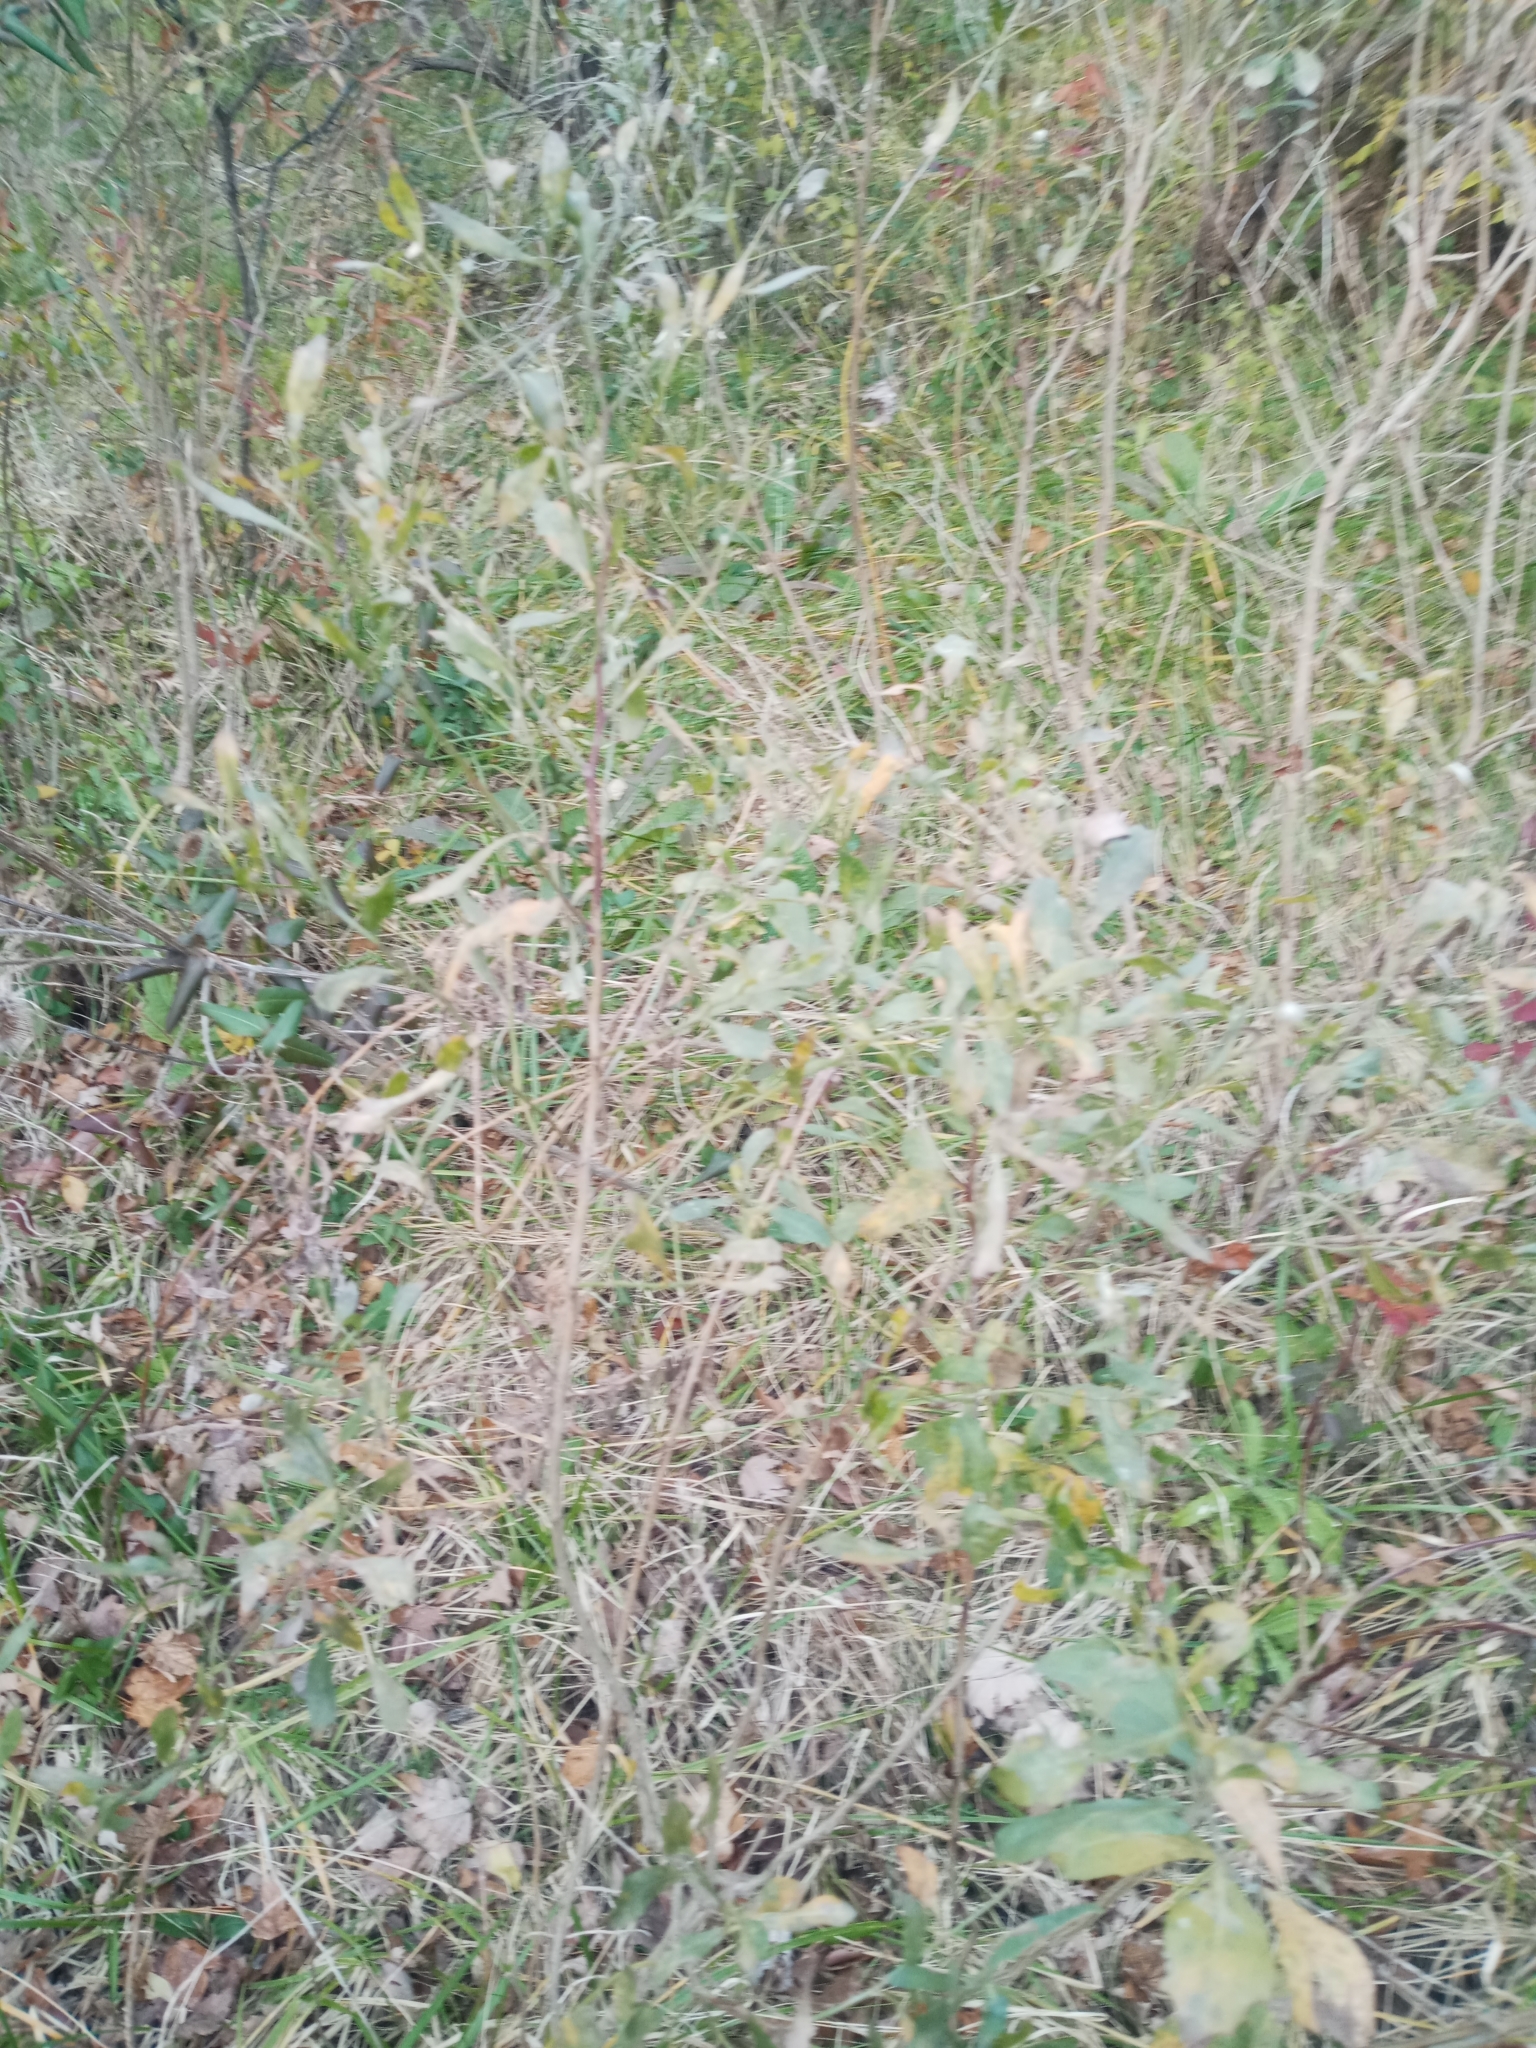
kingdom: Plantae
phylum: Tracheophyta
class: Magnoliopsida
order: Asterales
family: Asteraceae
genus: Baccharis
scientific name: Baccharis halimifolia
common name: Eastern baccharis
